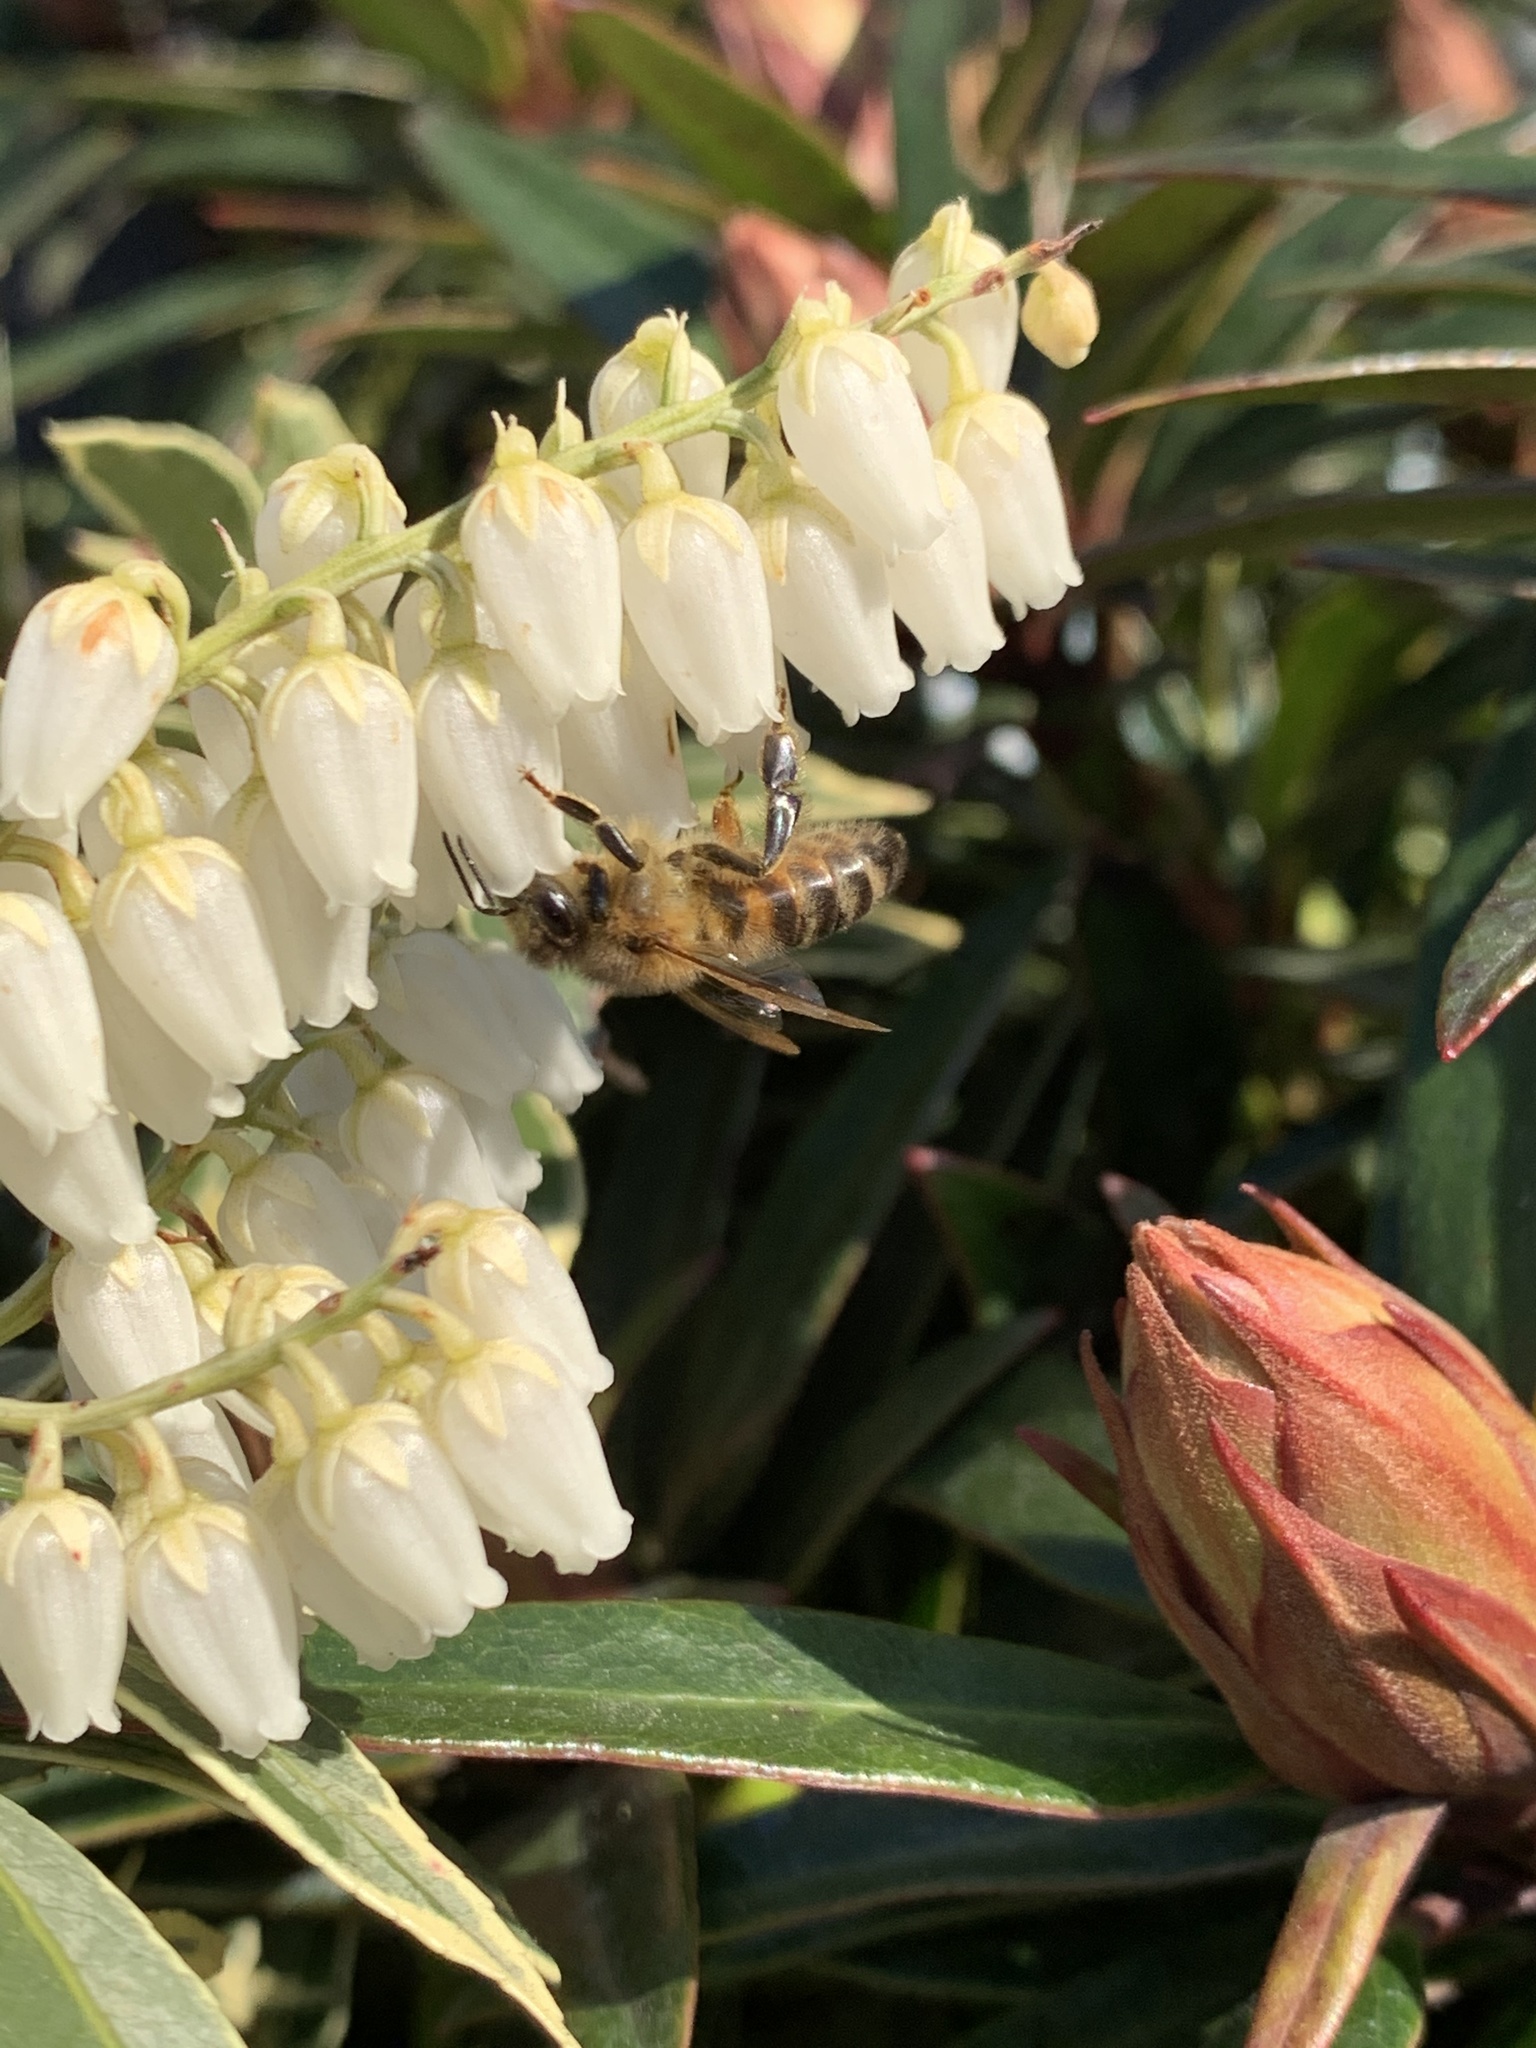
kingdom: Animalia
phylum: Arthropoda
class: Insecta
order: Hymenoptera
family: Apidae
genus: Apis
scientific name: Apis mellifera
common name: Honey bee
